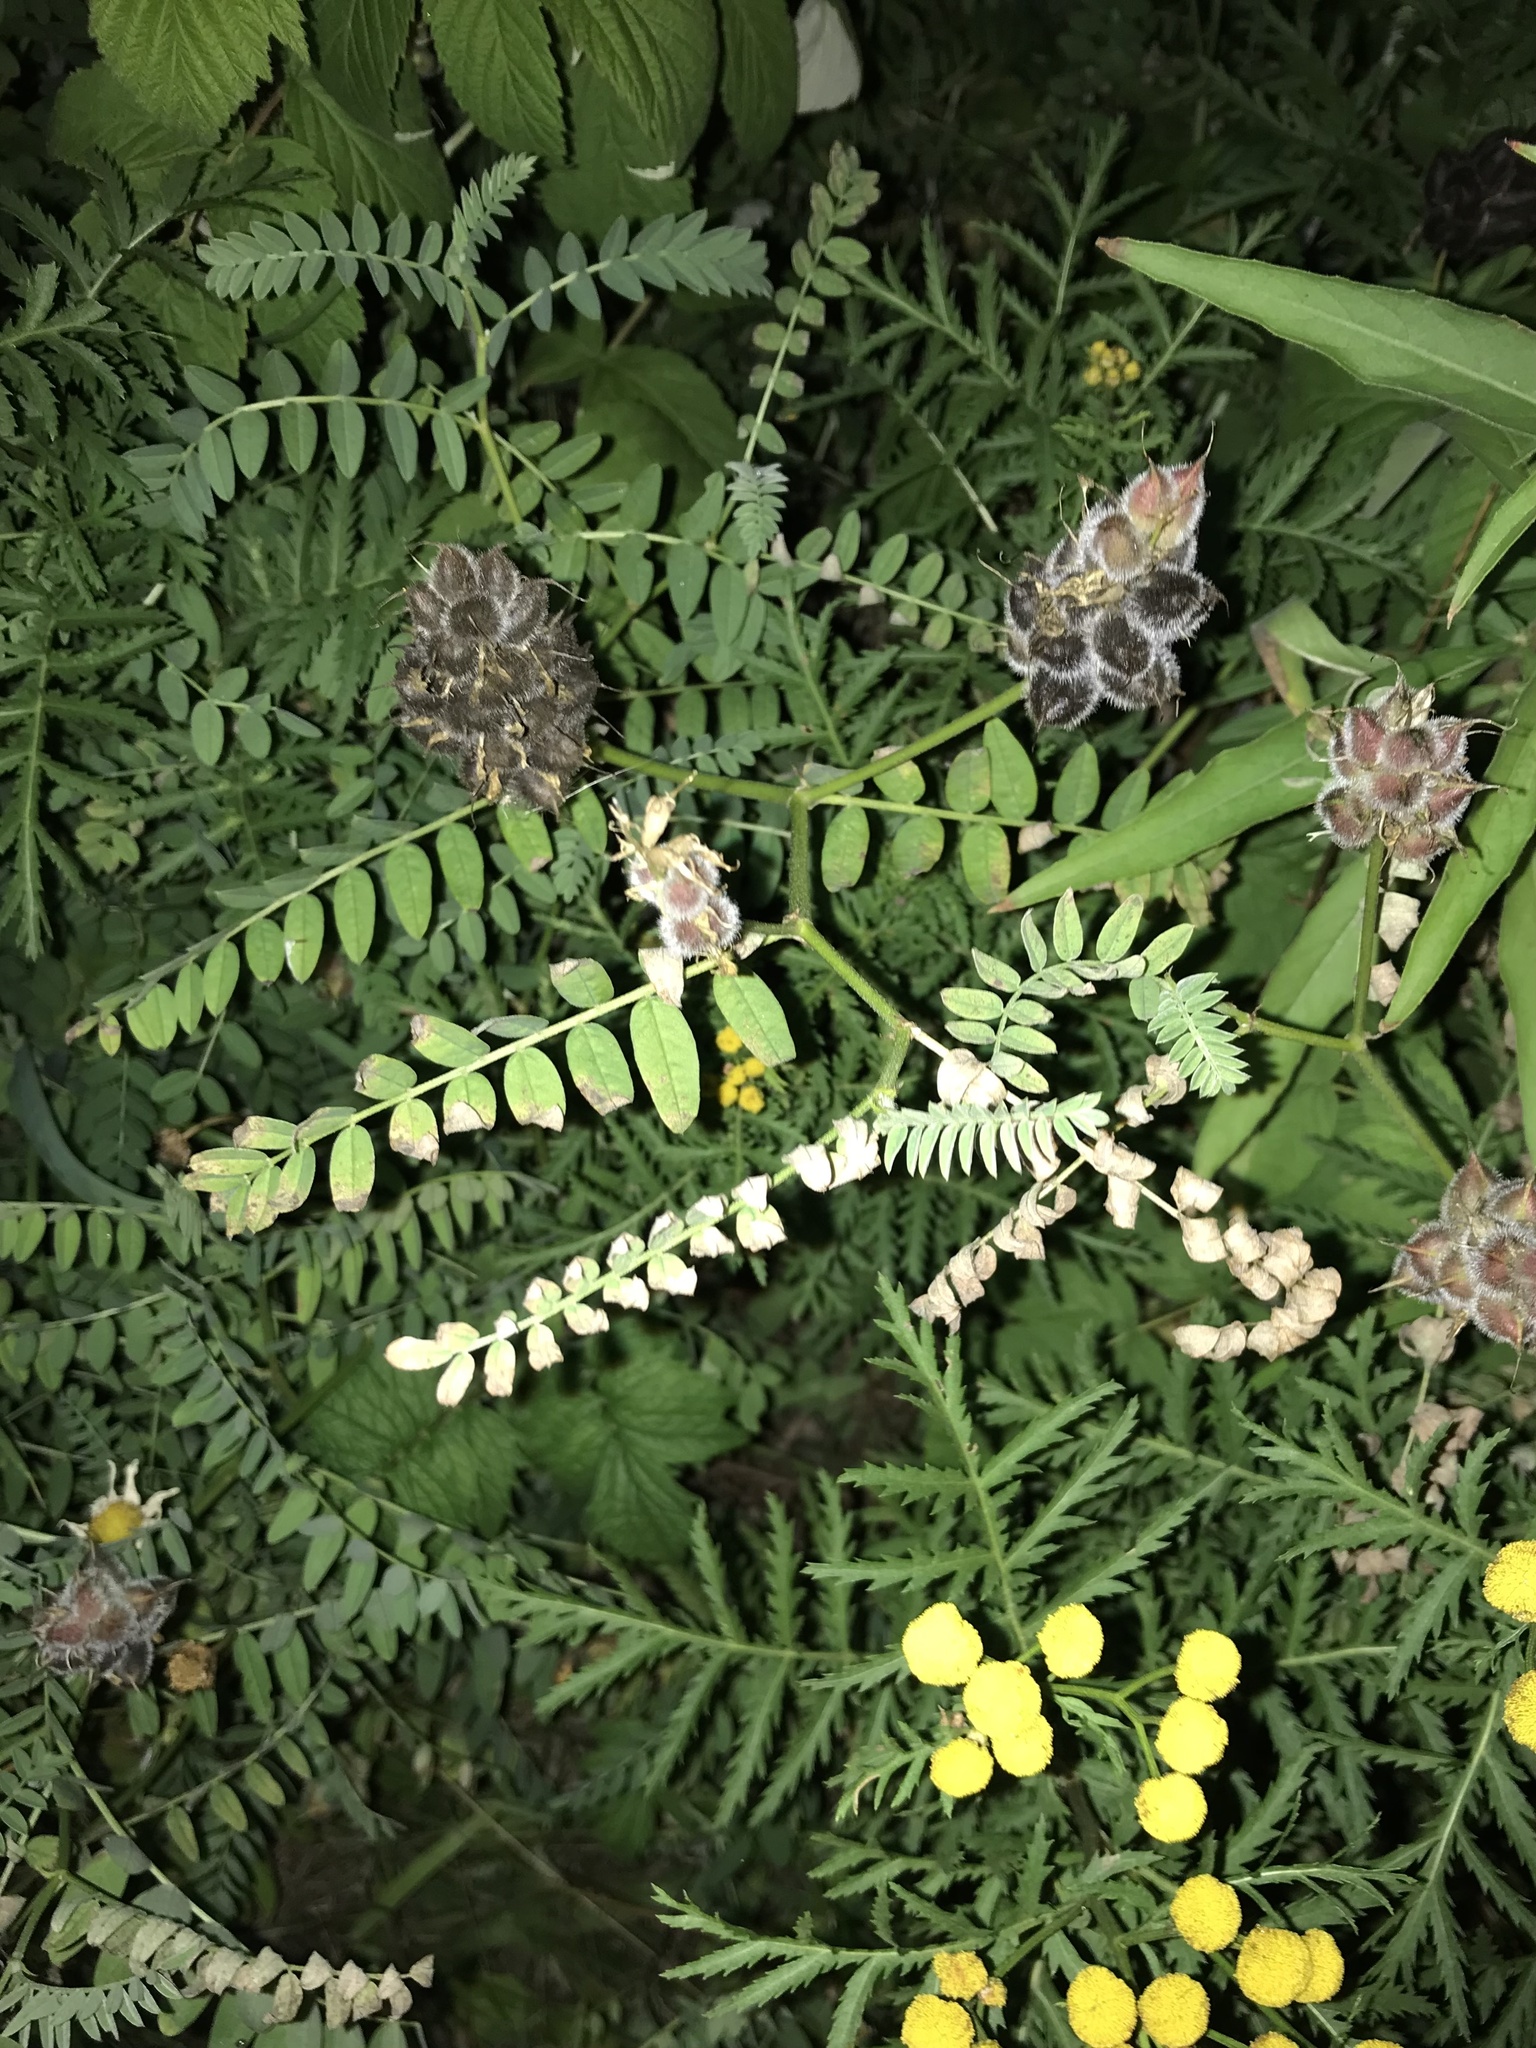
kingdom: Plantae
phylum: Tracheophyta
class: Magnoliopsida
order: Fabales
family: Fabaceae
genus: Astragalus
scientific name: Astragalus cicer
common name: Chick-pea milk-vetch
